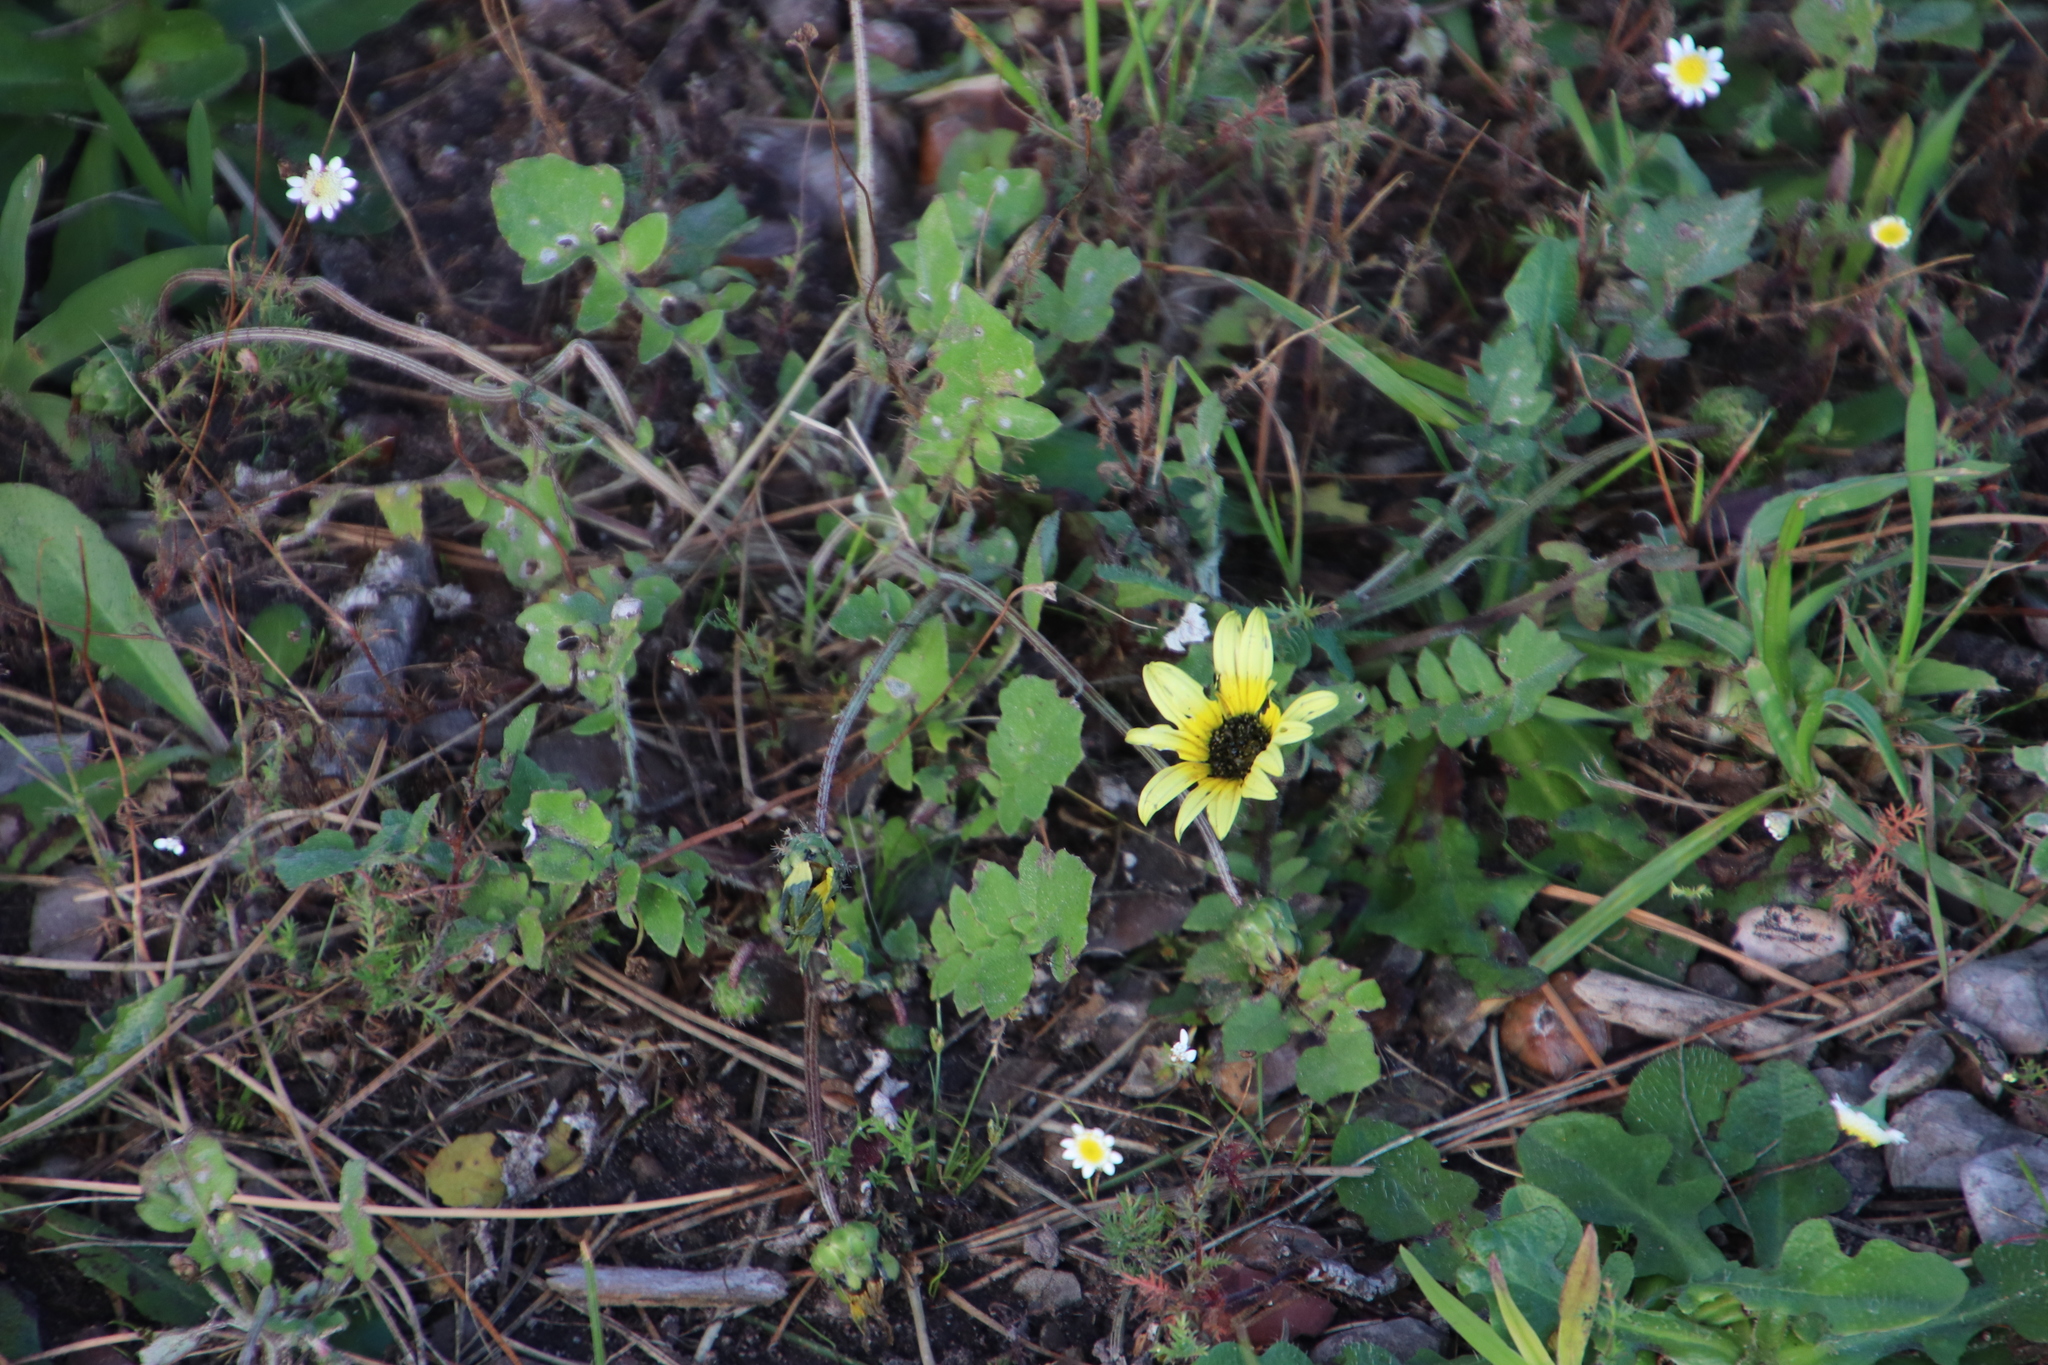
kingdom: Plantae
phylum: Tracheophyta
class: Magnoliopsida
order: Asterales
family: Asteraceae
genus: Arctotheca
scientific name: Arctotheca calendula
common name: Capeweed
